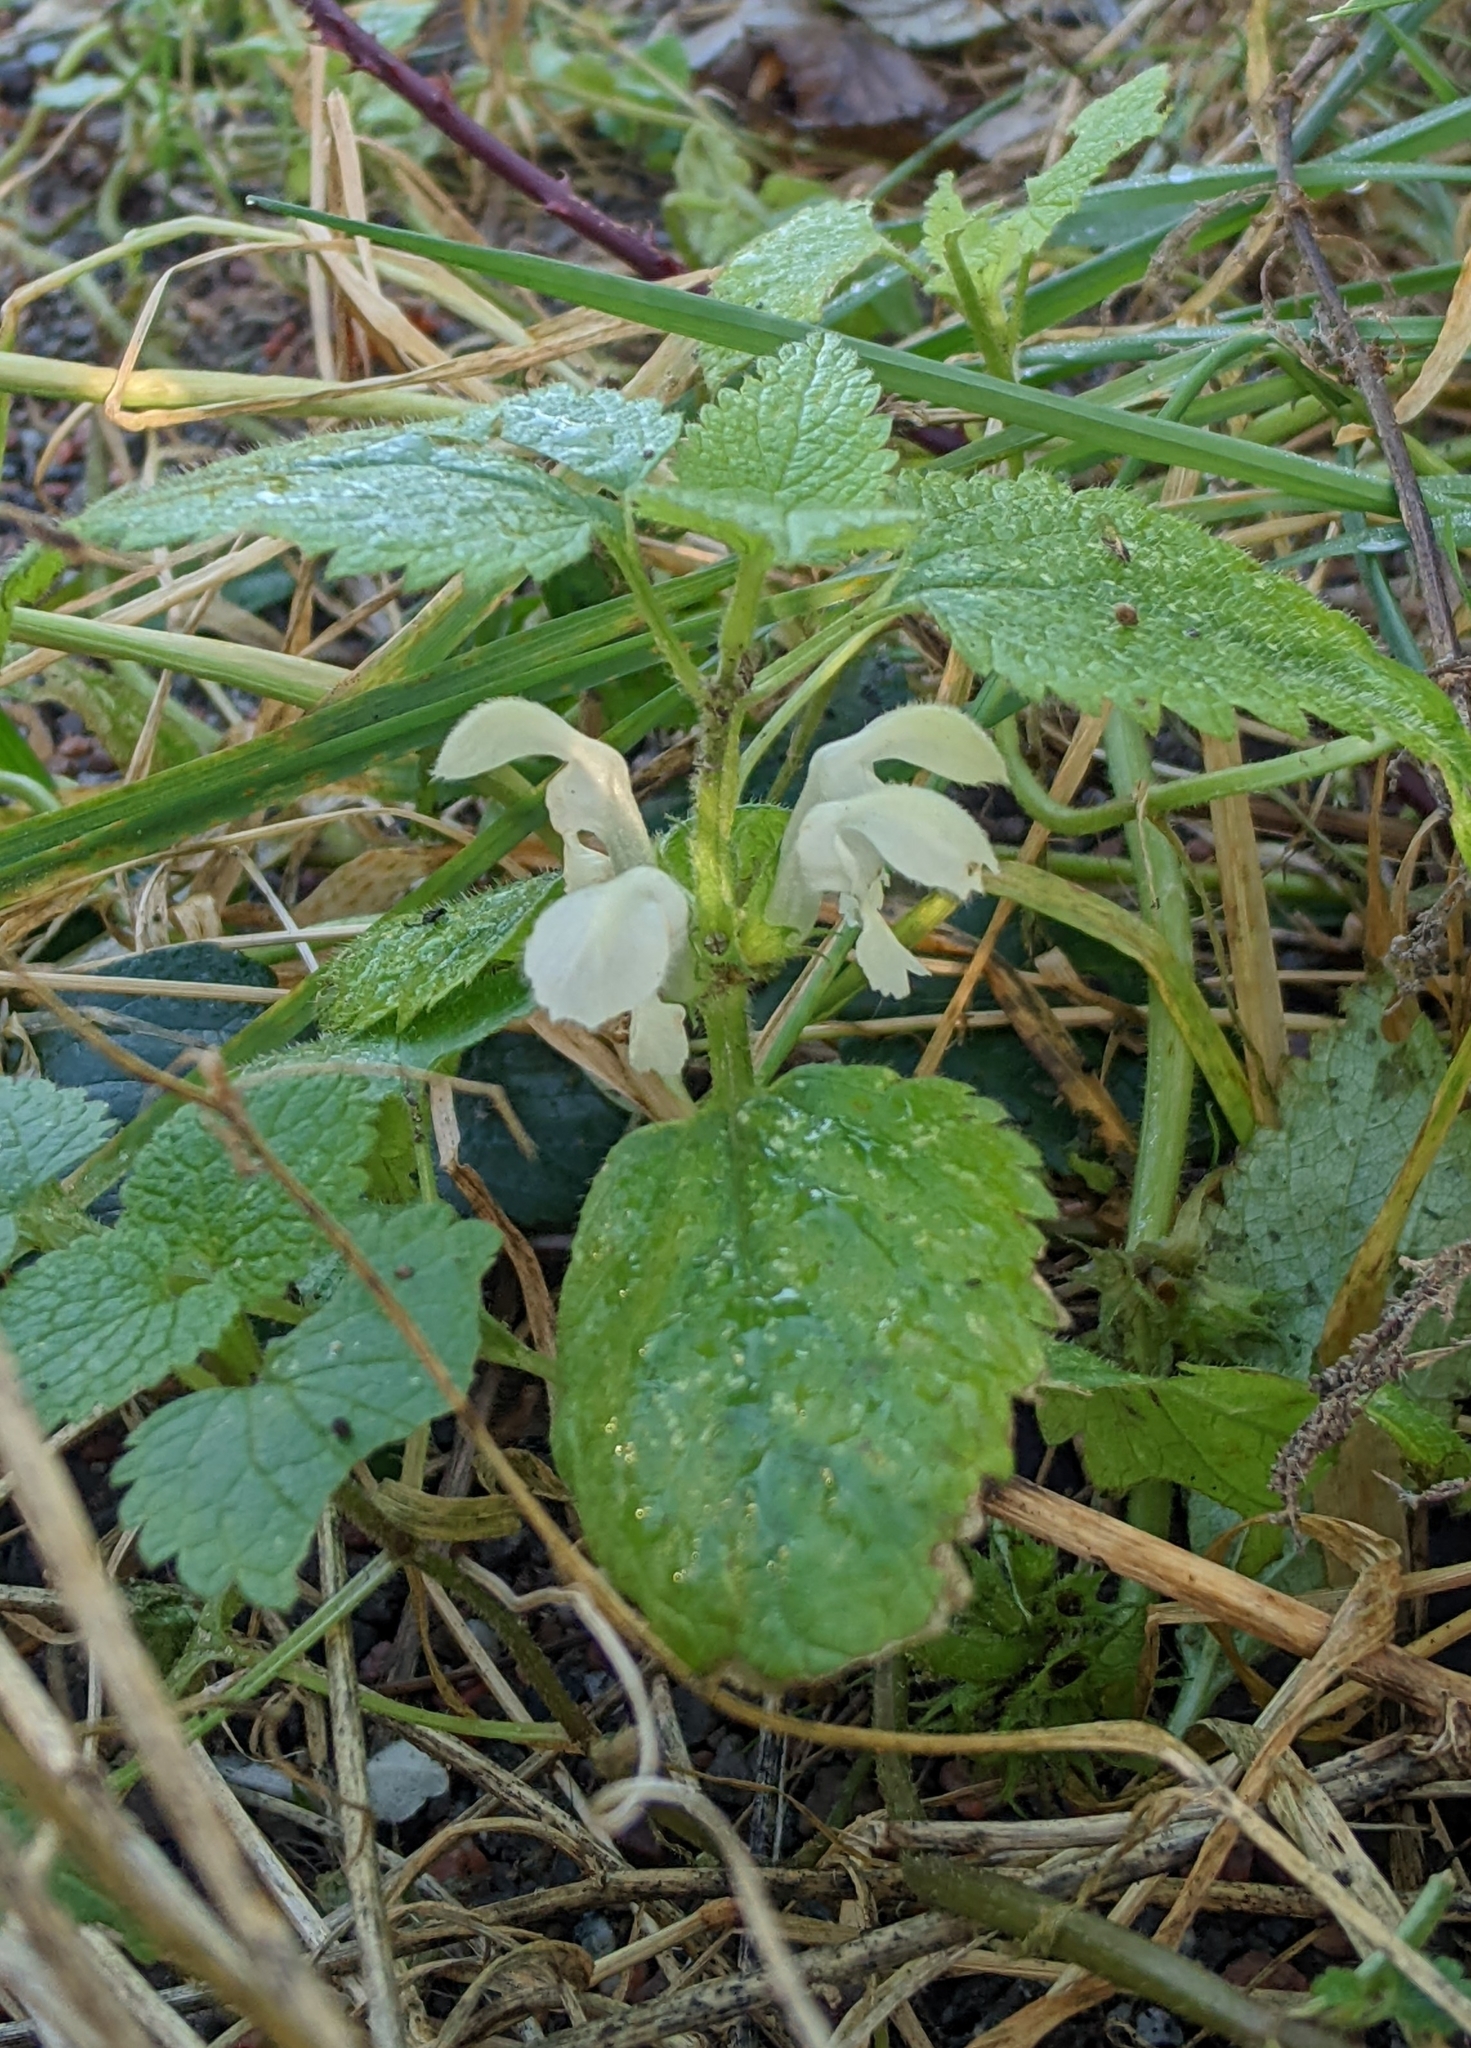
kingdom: Plantae
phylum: Tracheophyta
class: Magnoliopsida
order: Lamiales
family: Lamiaceae
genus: Lamium
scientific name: Lamium album
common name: White dead-nettle
